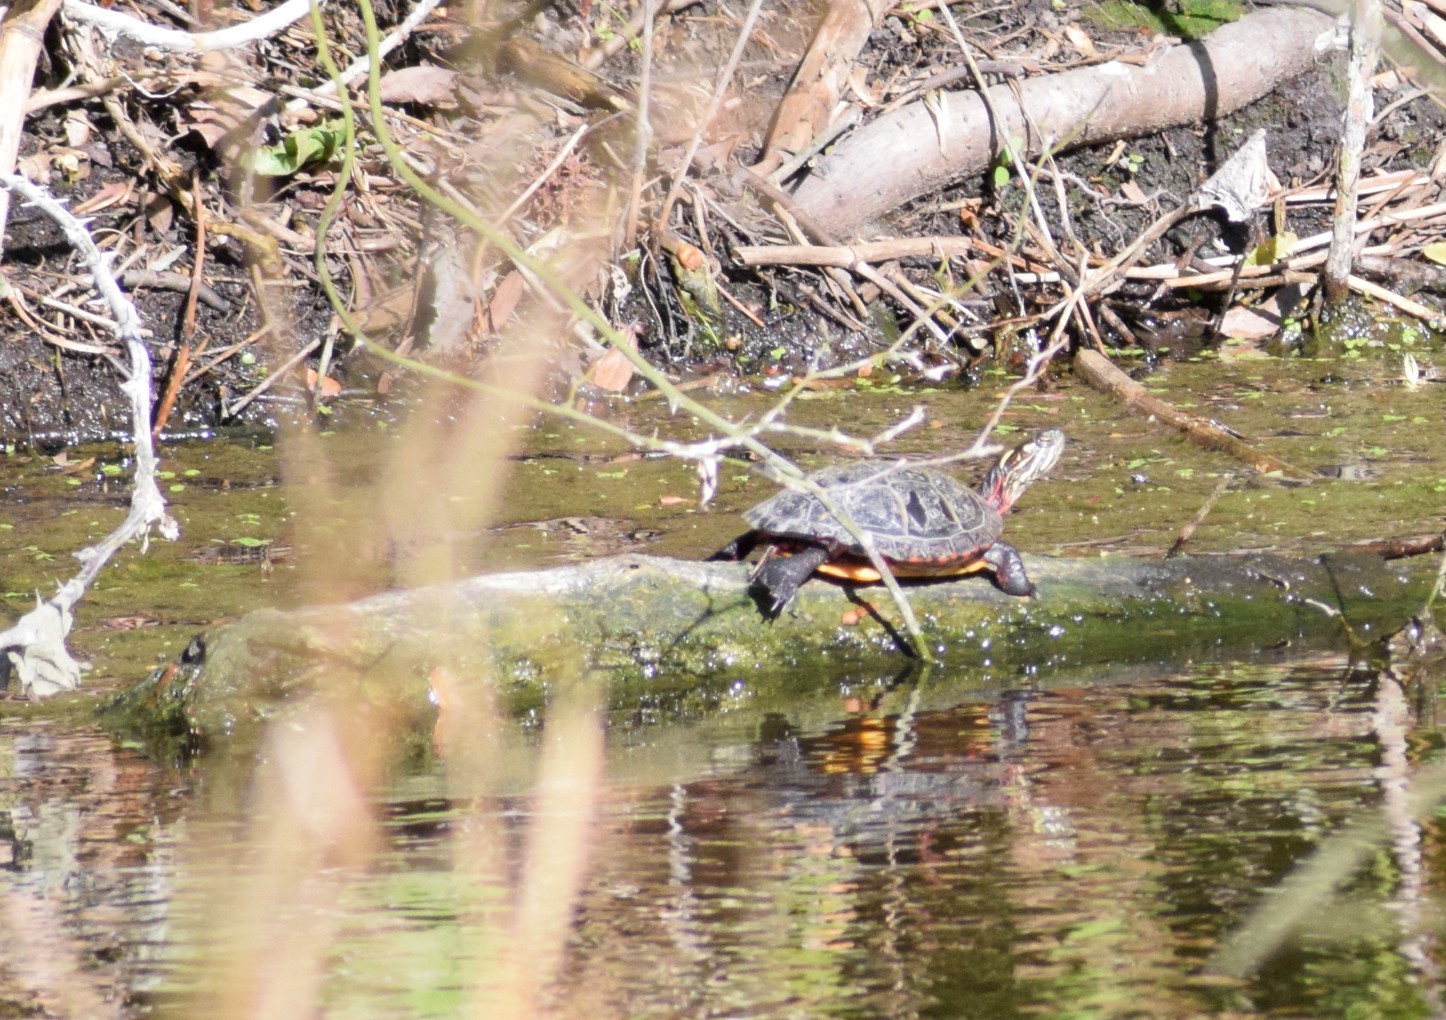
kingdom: Animalia
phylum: Chordata
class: Testudines
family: Emydidae
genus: Chrysemys
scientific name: Chrysemys picta
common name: Painted turtle
